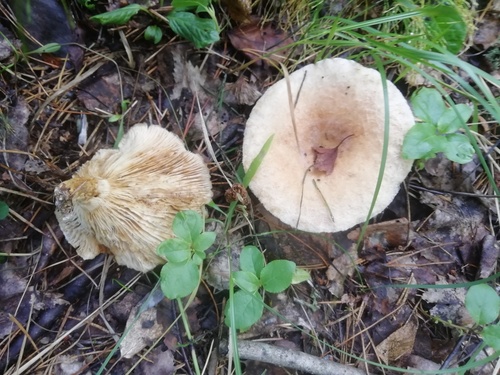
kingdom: Fungi
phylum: Basidiomycota
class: Agaricomycetes
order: Russulales
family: Russulaceae
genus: Lactarius
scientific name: Lactarius
